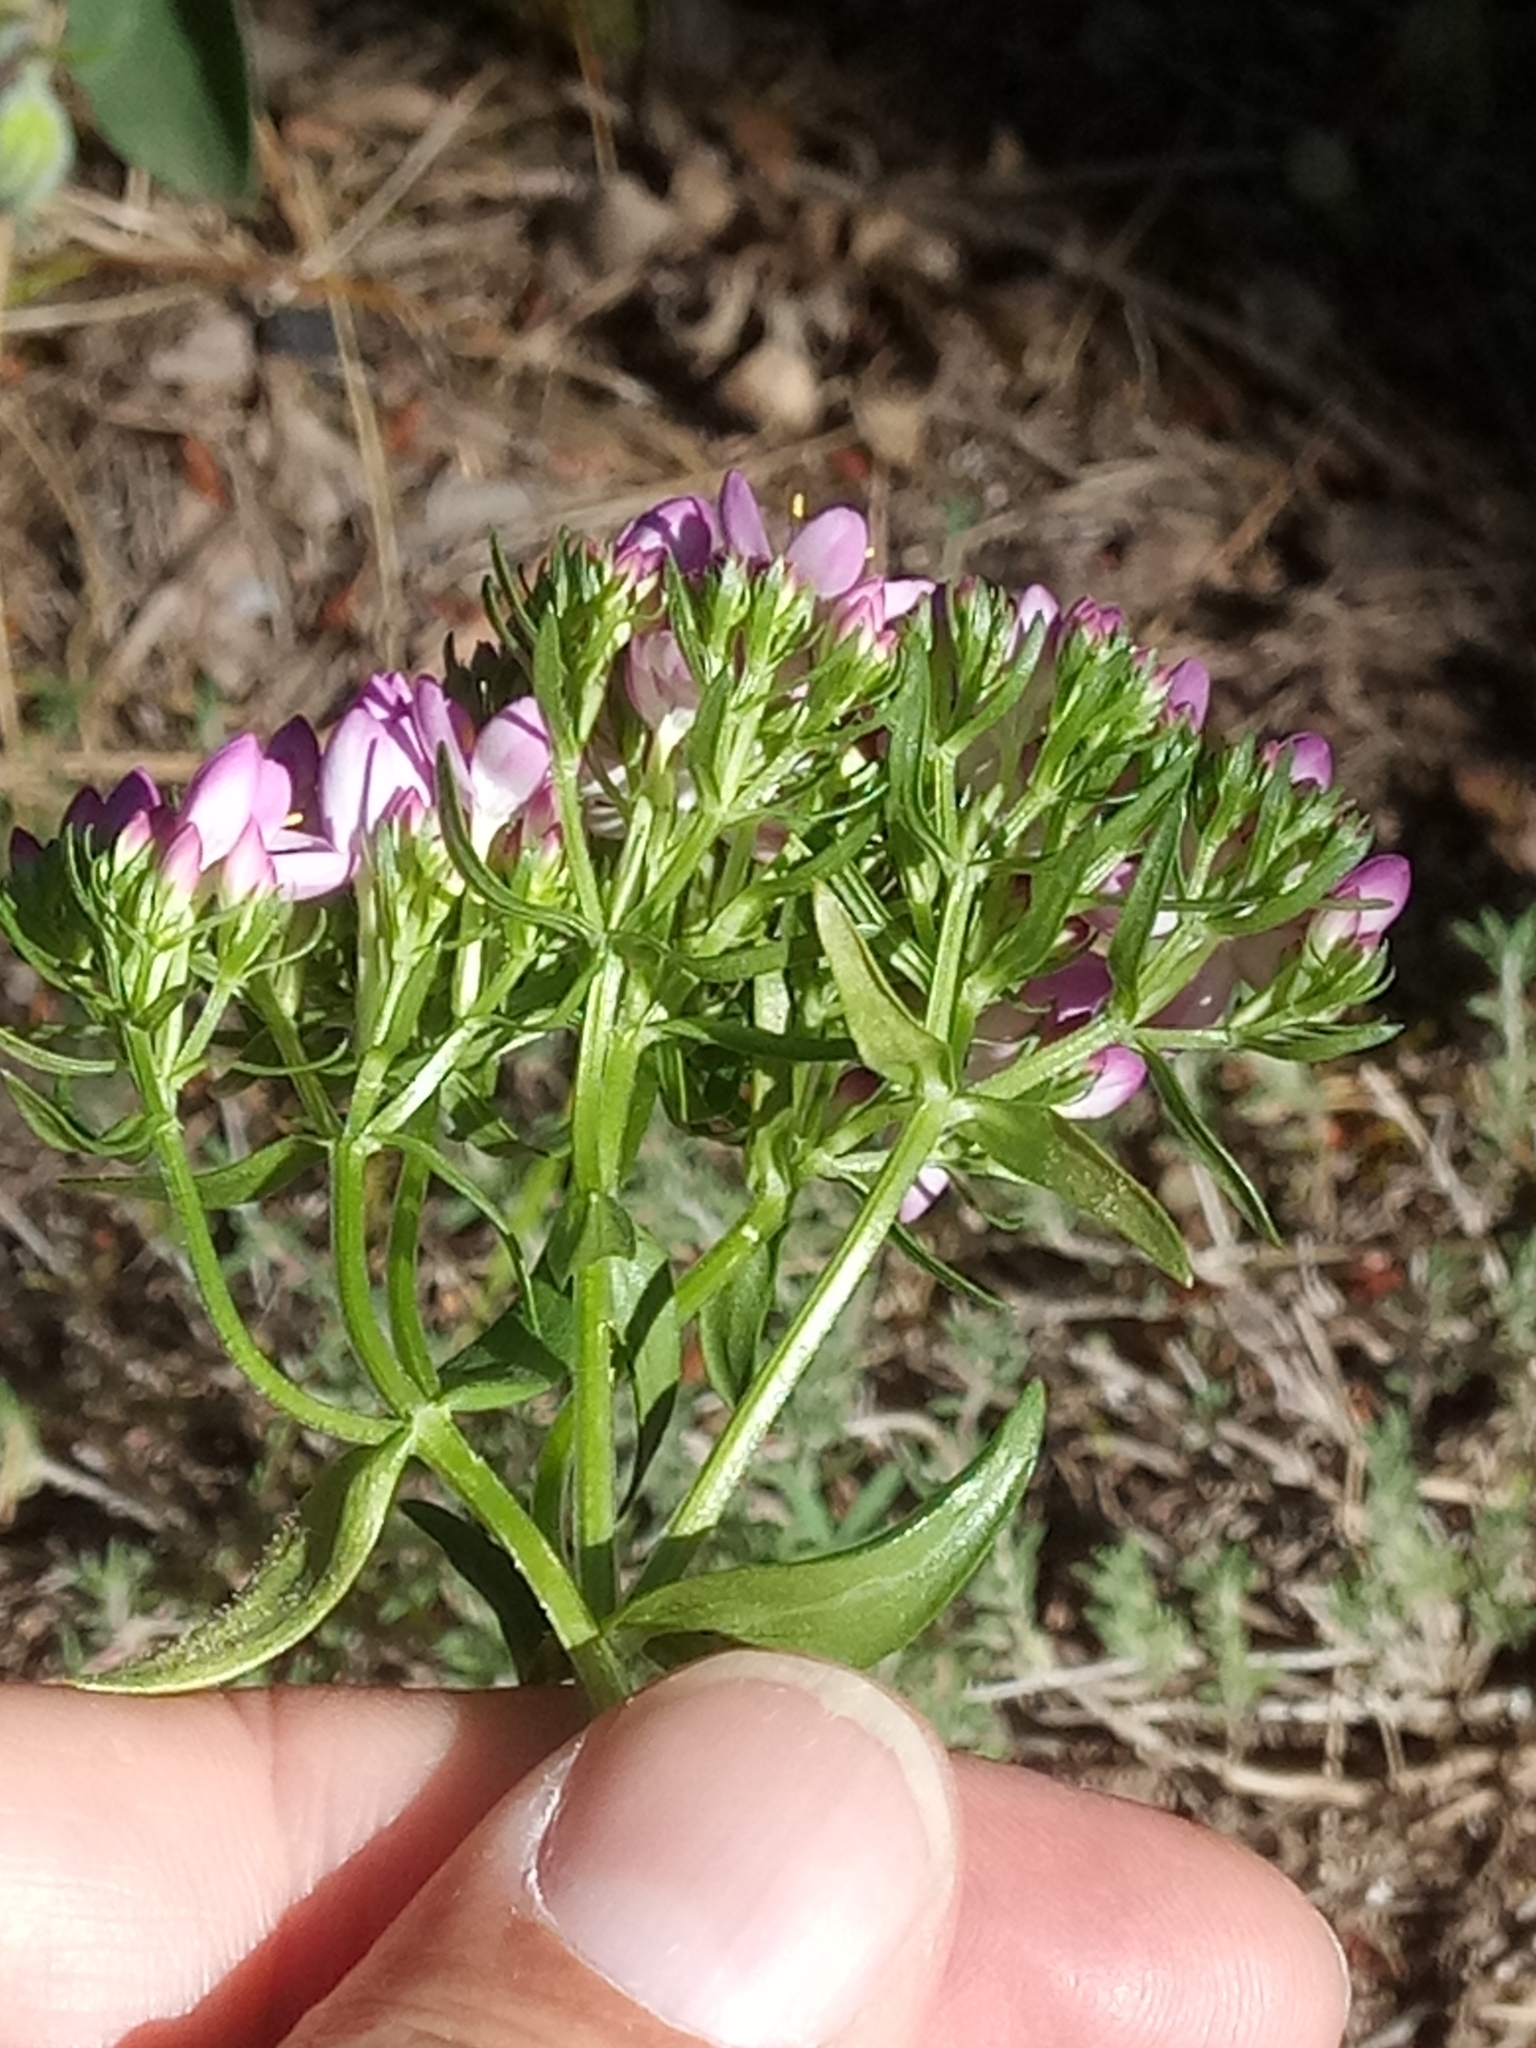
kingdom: Plantae
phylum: Tracheophyta
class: Magnoliopsida
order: Gentianales
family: Gentianaceae
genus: Centaurium
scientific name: Centaurium erythraea
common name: Common centaury
